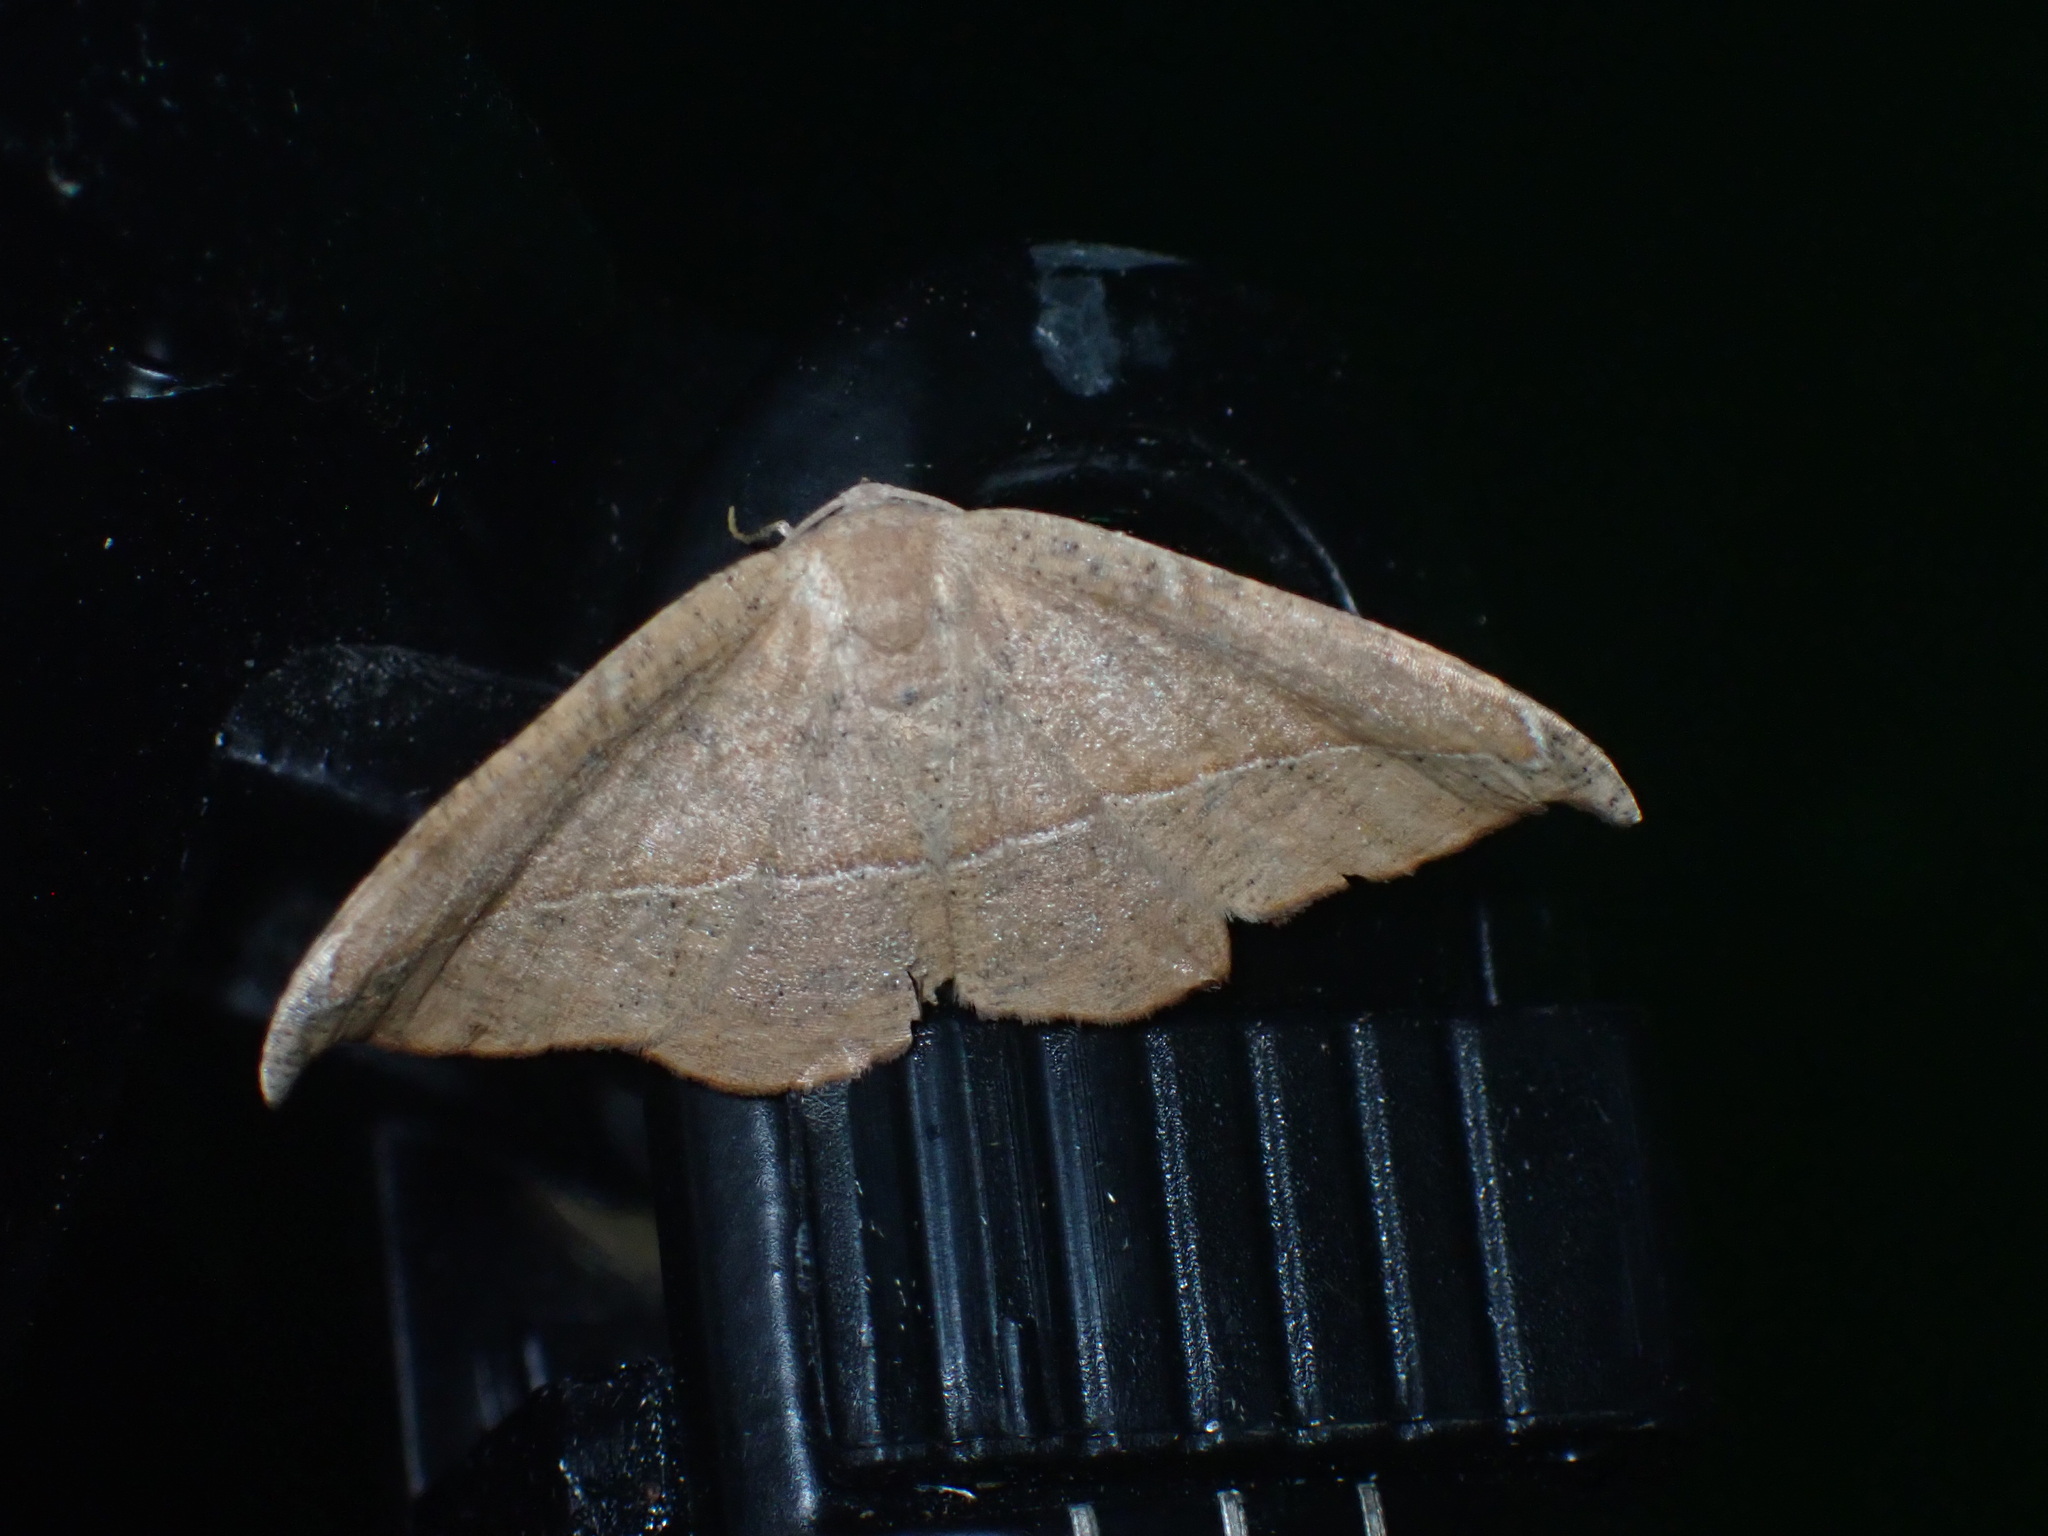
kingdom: Animalia
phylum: Arthropoda
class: Insecta
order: Lepidoptera
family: Geometridae
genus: Patalene
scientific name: Patalene olyzonaria
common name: Juniper geometer moth
